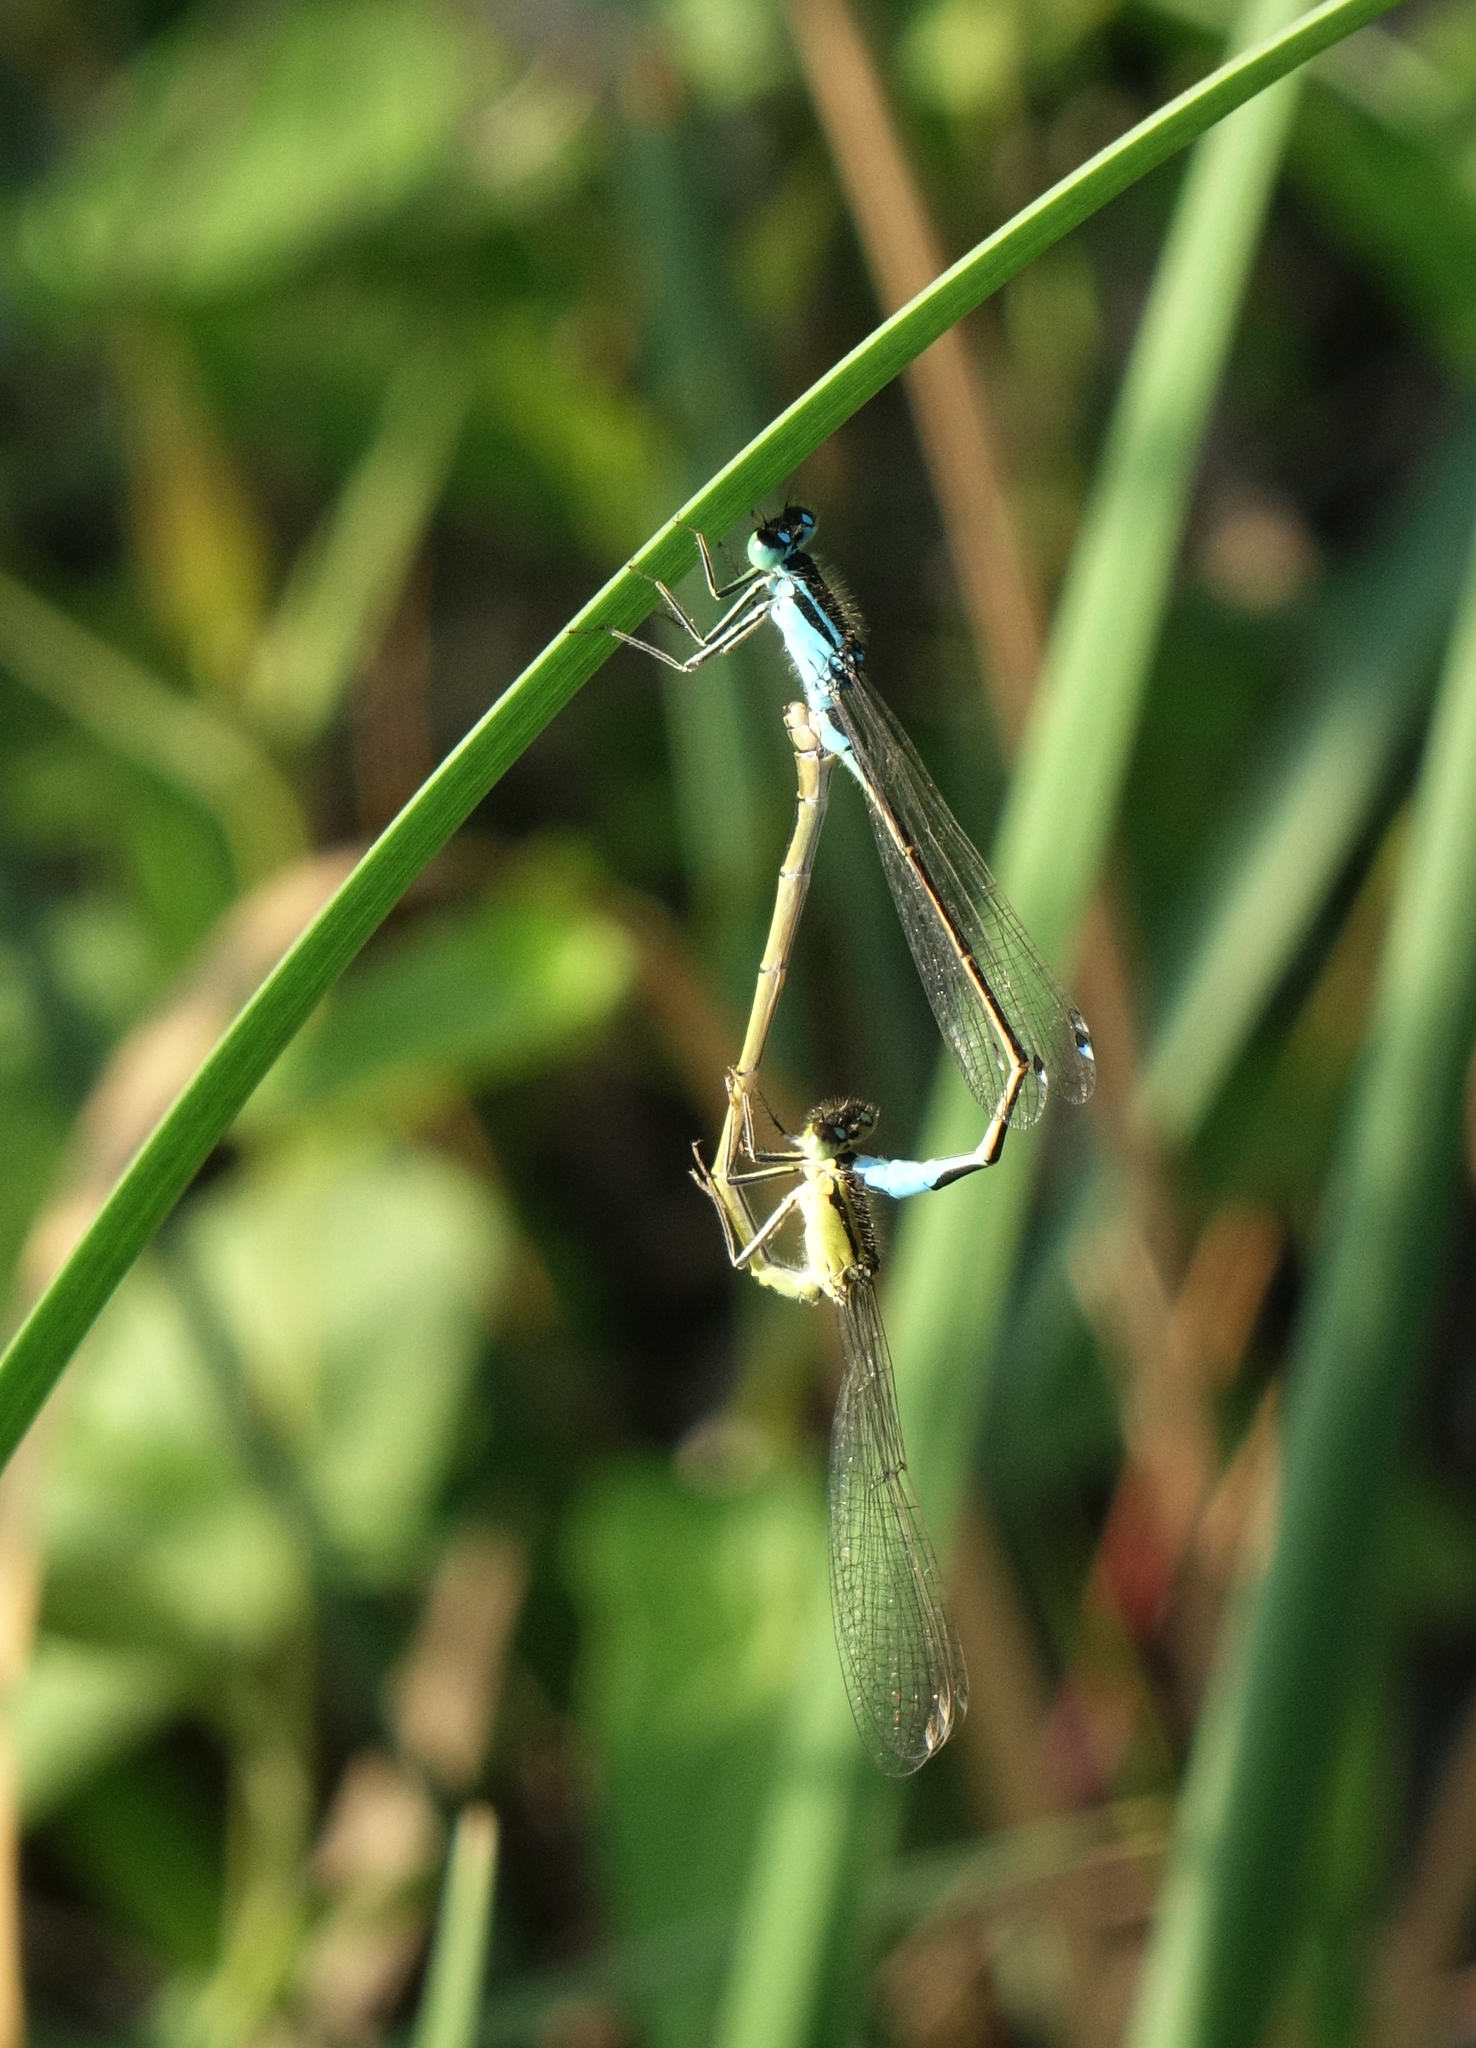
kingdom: Animalia
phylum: Arthropoda
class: Insecta
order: Odonata
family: Coenagrionidae
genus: Ischnura
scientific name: Ischnura elegans
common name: Blue-tailed damselfly
